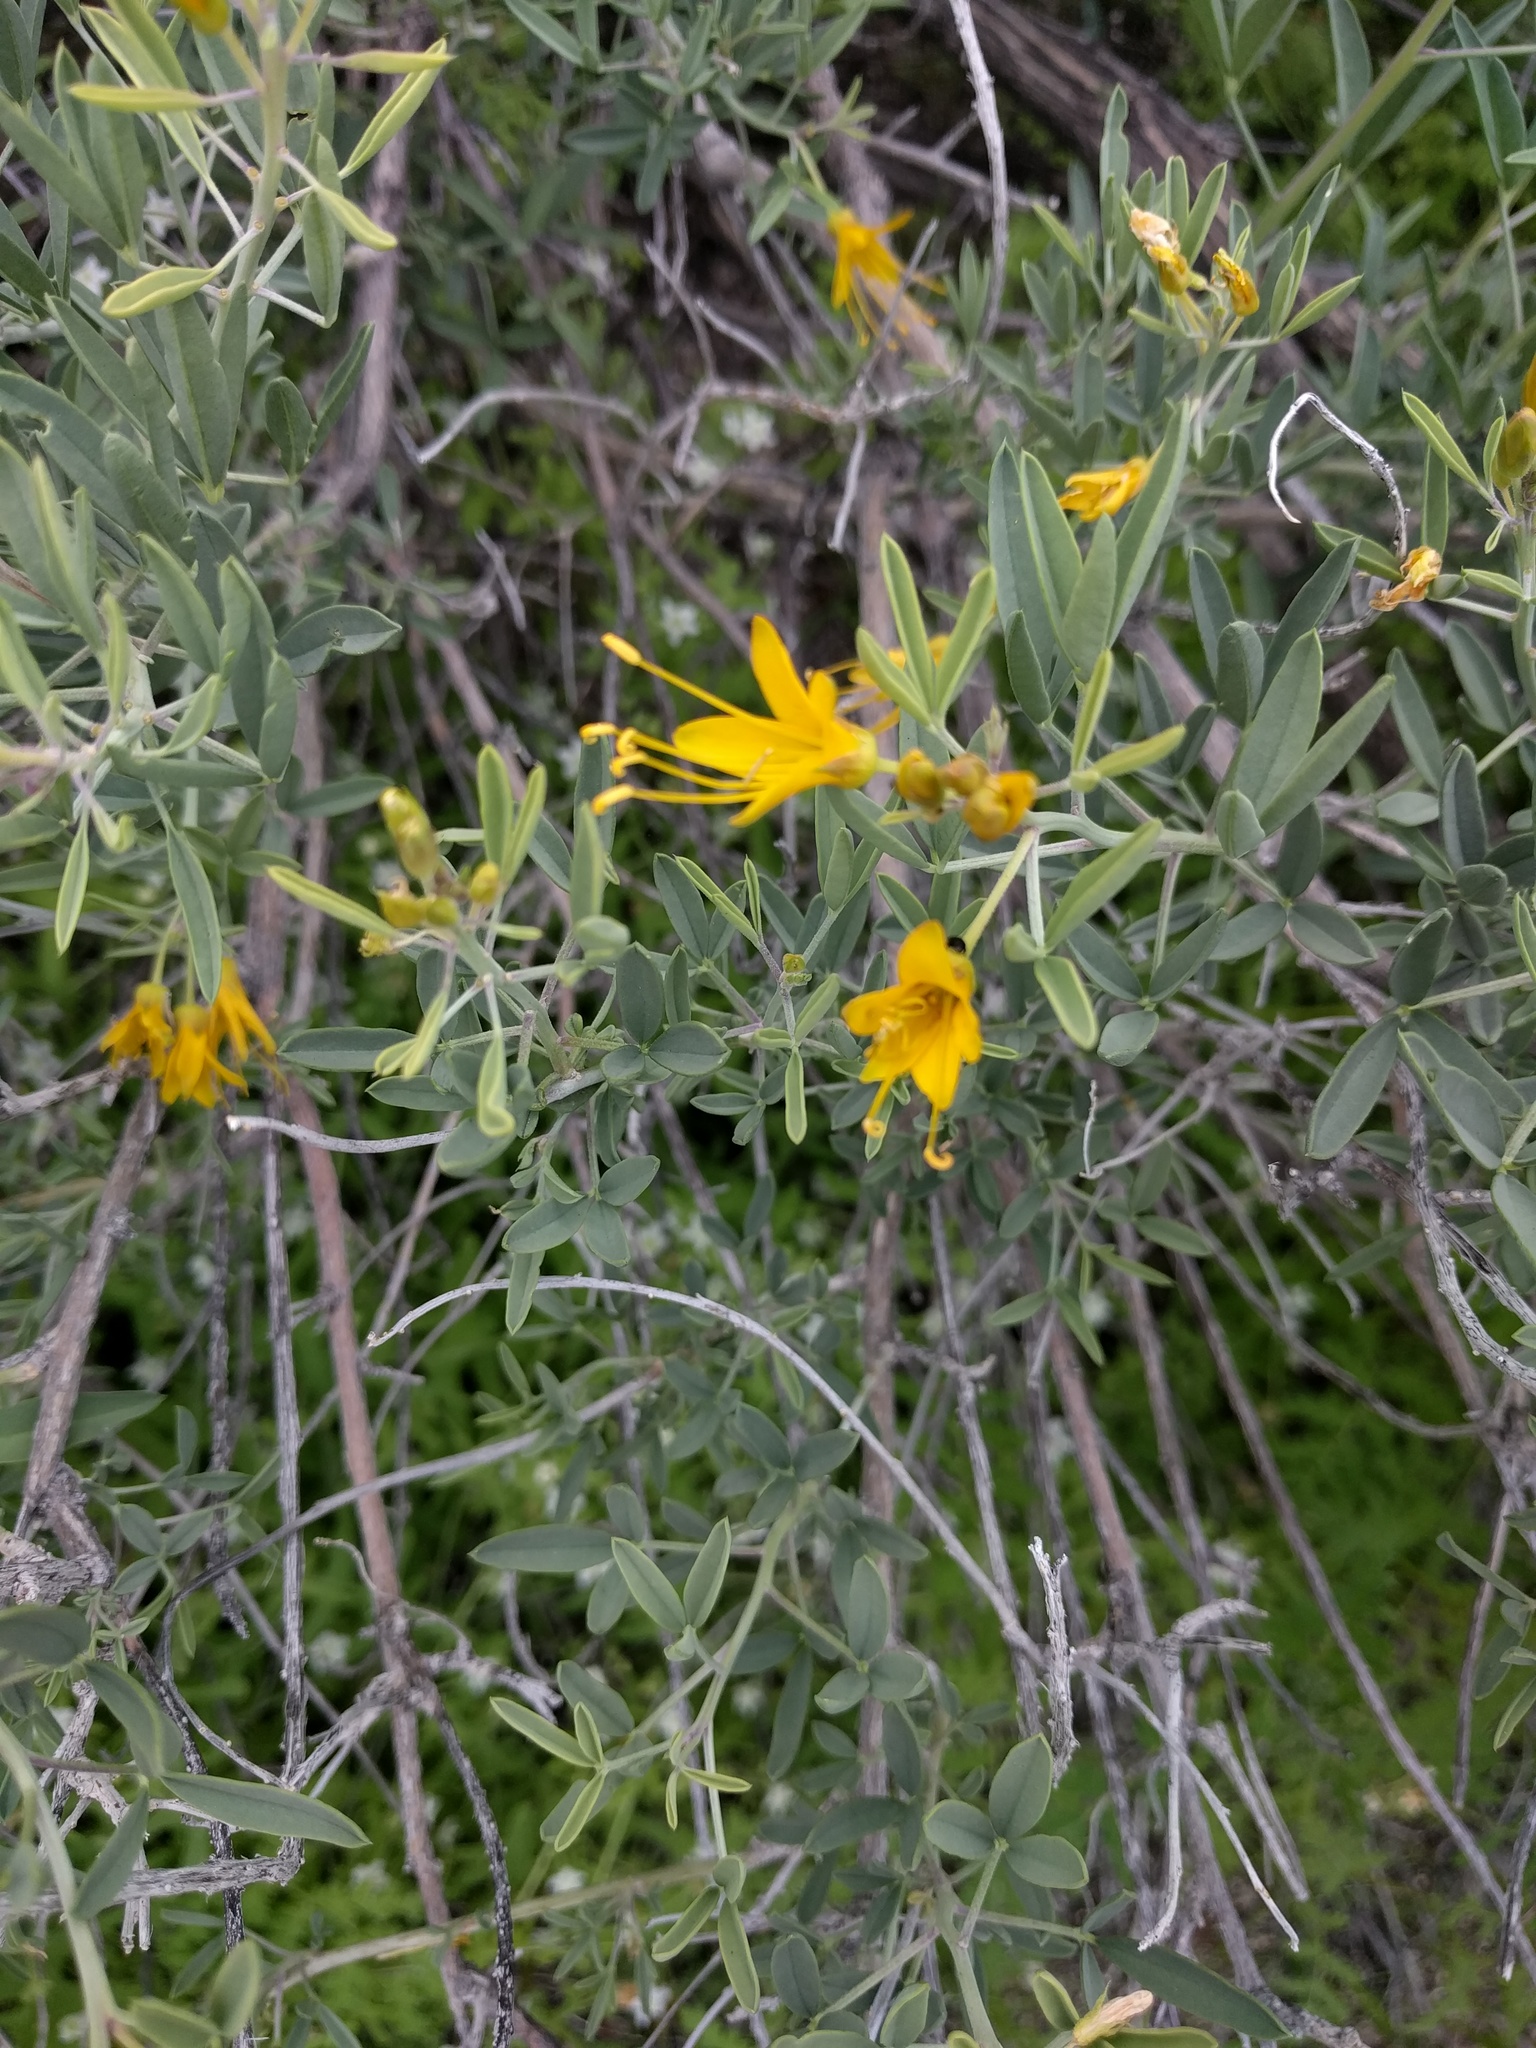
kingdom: Plantae
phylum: Tracheophyta
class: Magnoliopsida
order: Brassicales
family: Cleomaceae
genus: Cleomella
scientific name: Cleomella arborea
